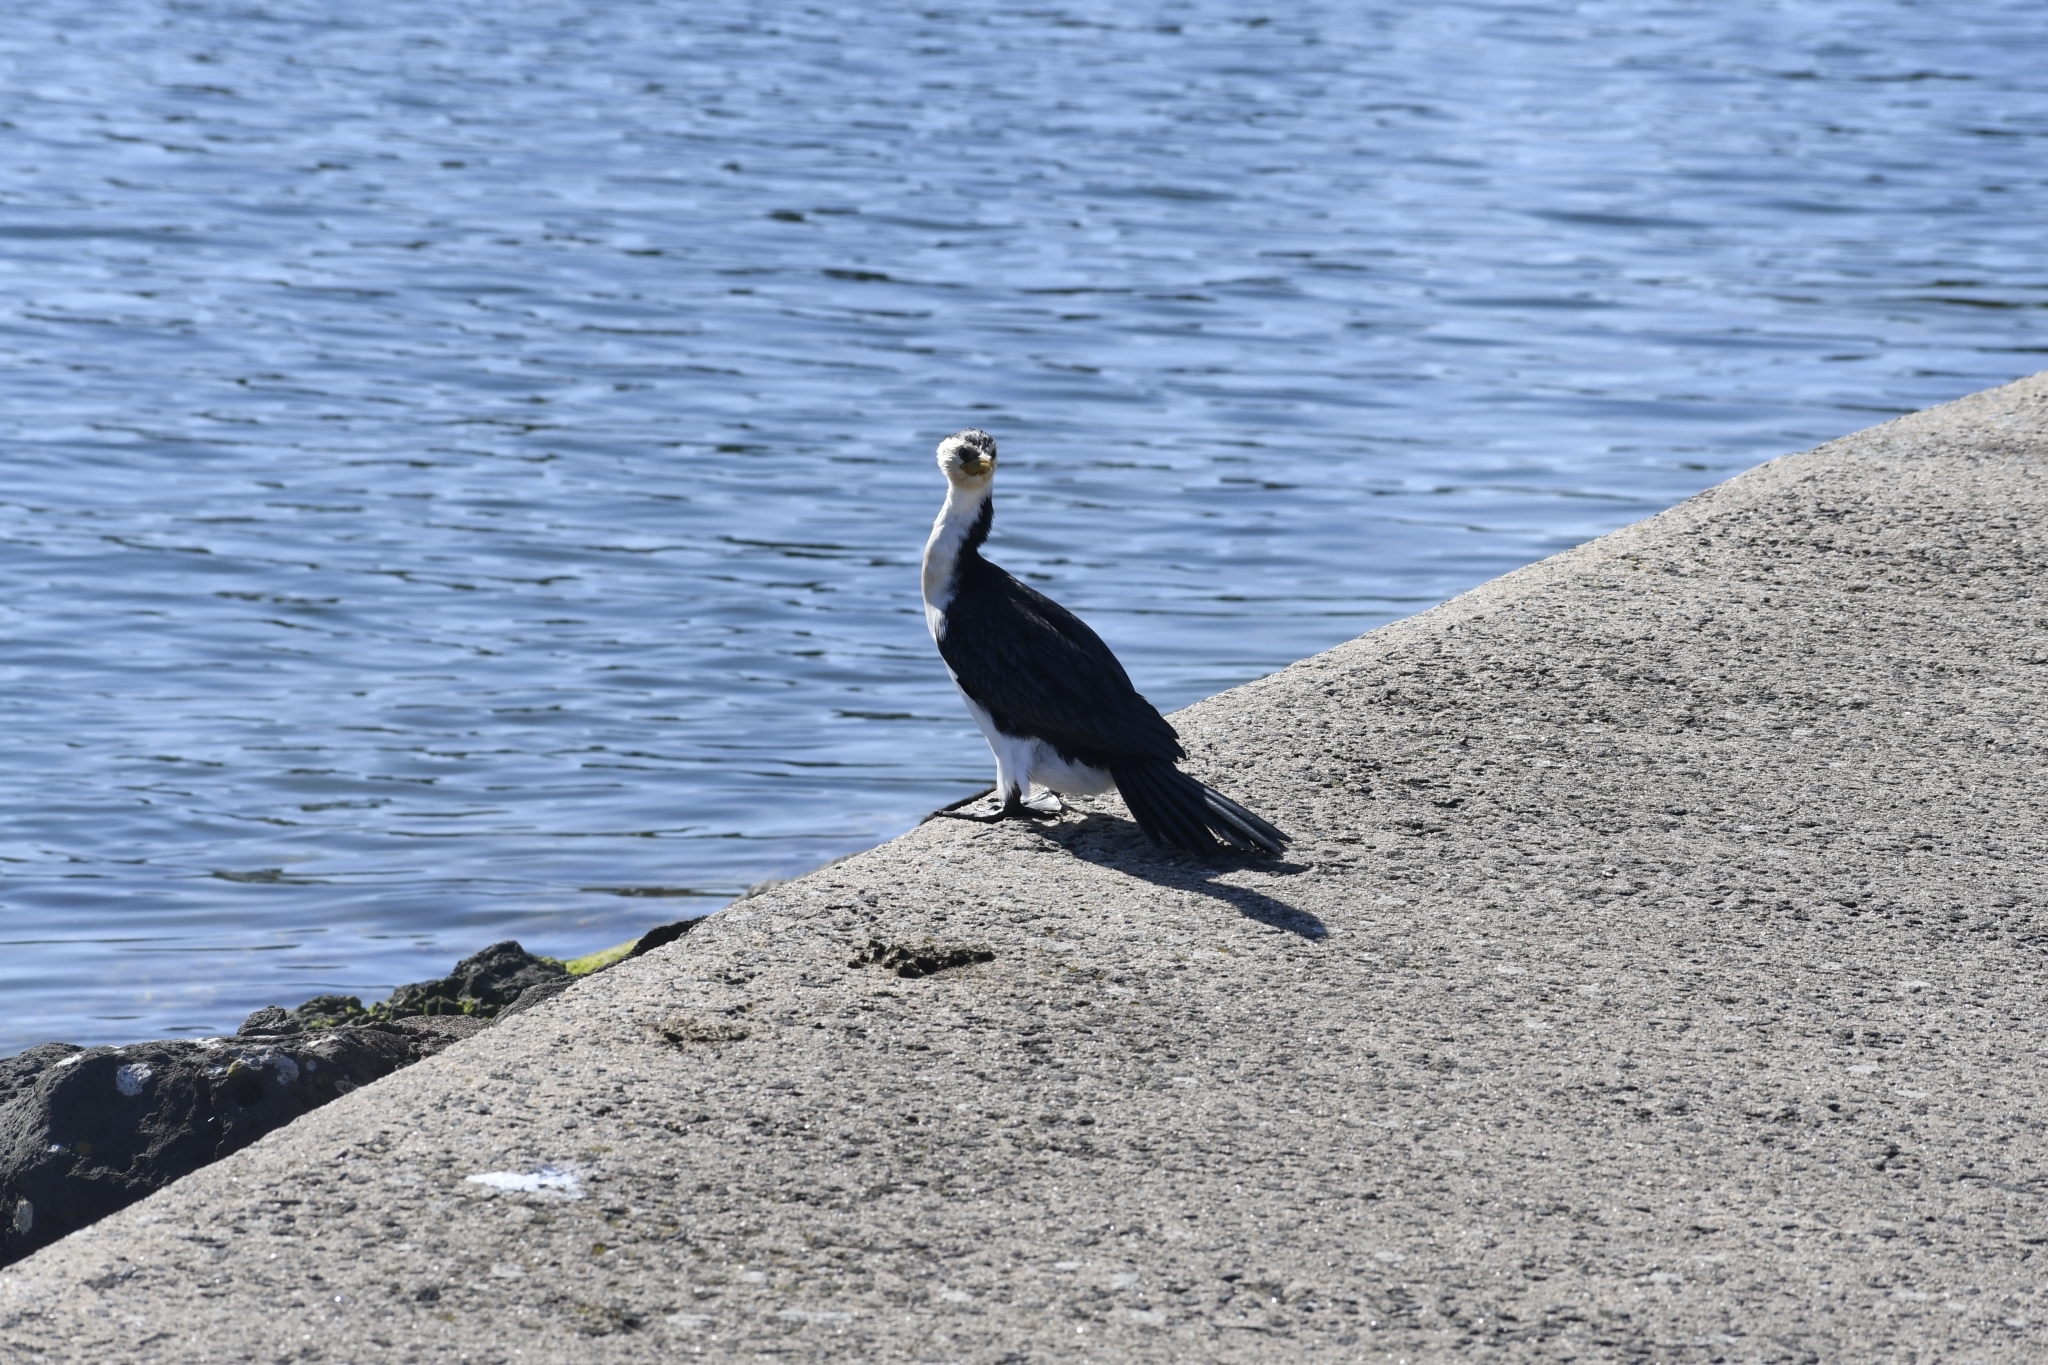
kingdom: Animalia
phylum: Chordata
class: Aves
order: Suliformes
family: Phalacrocoracidae
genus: Microcarbo
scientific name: Microcarbo melanoleucos
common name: Little pied cormorant
